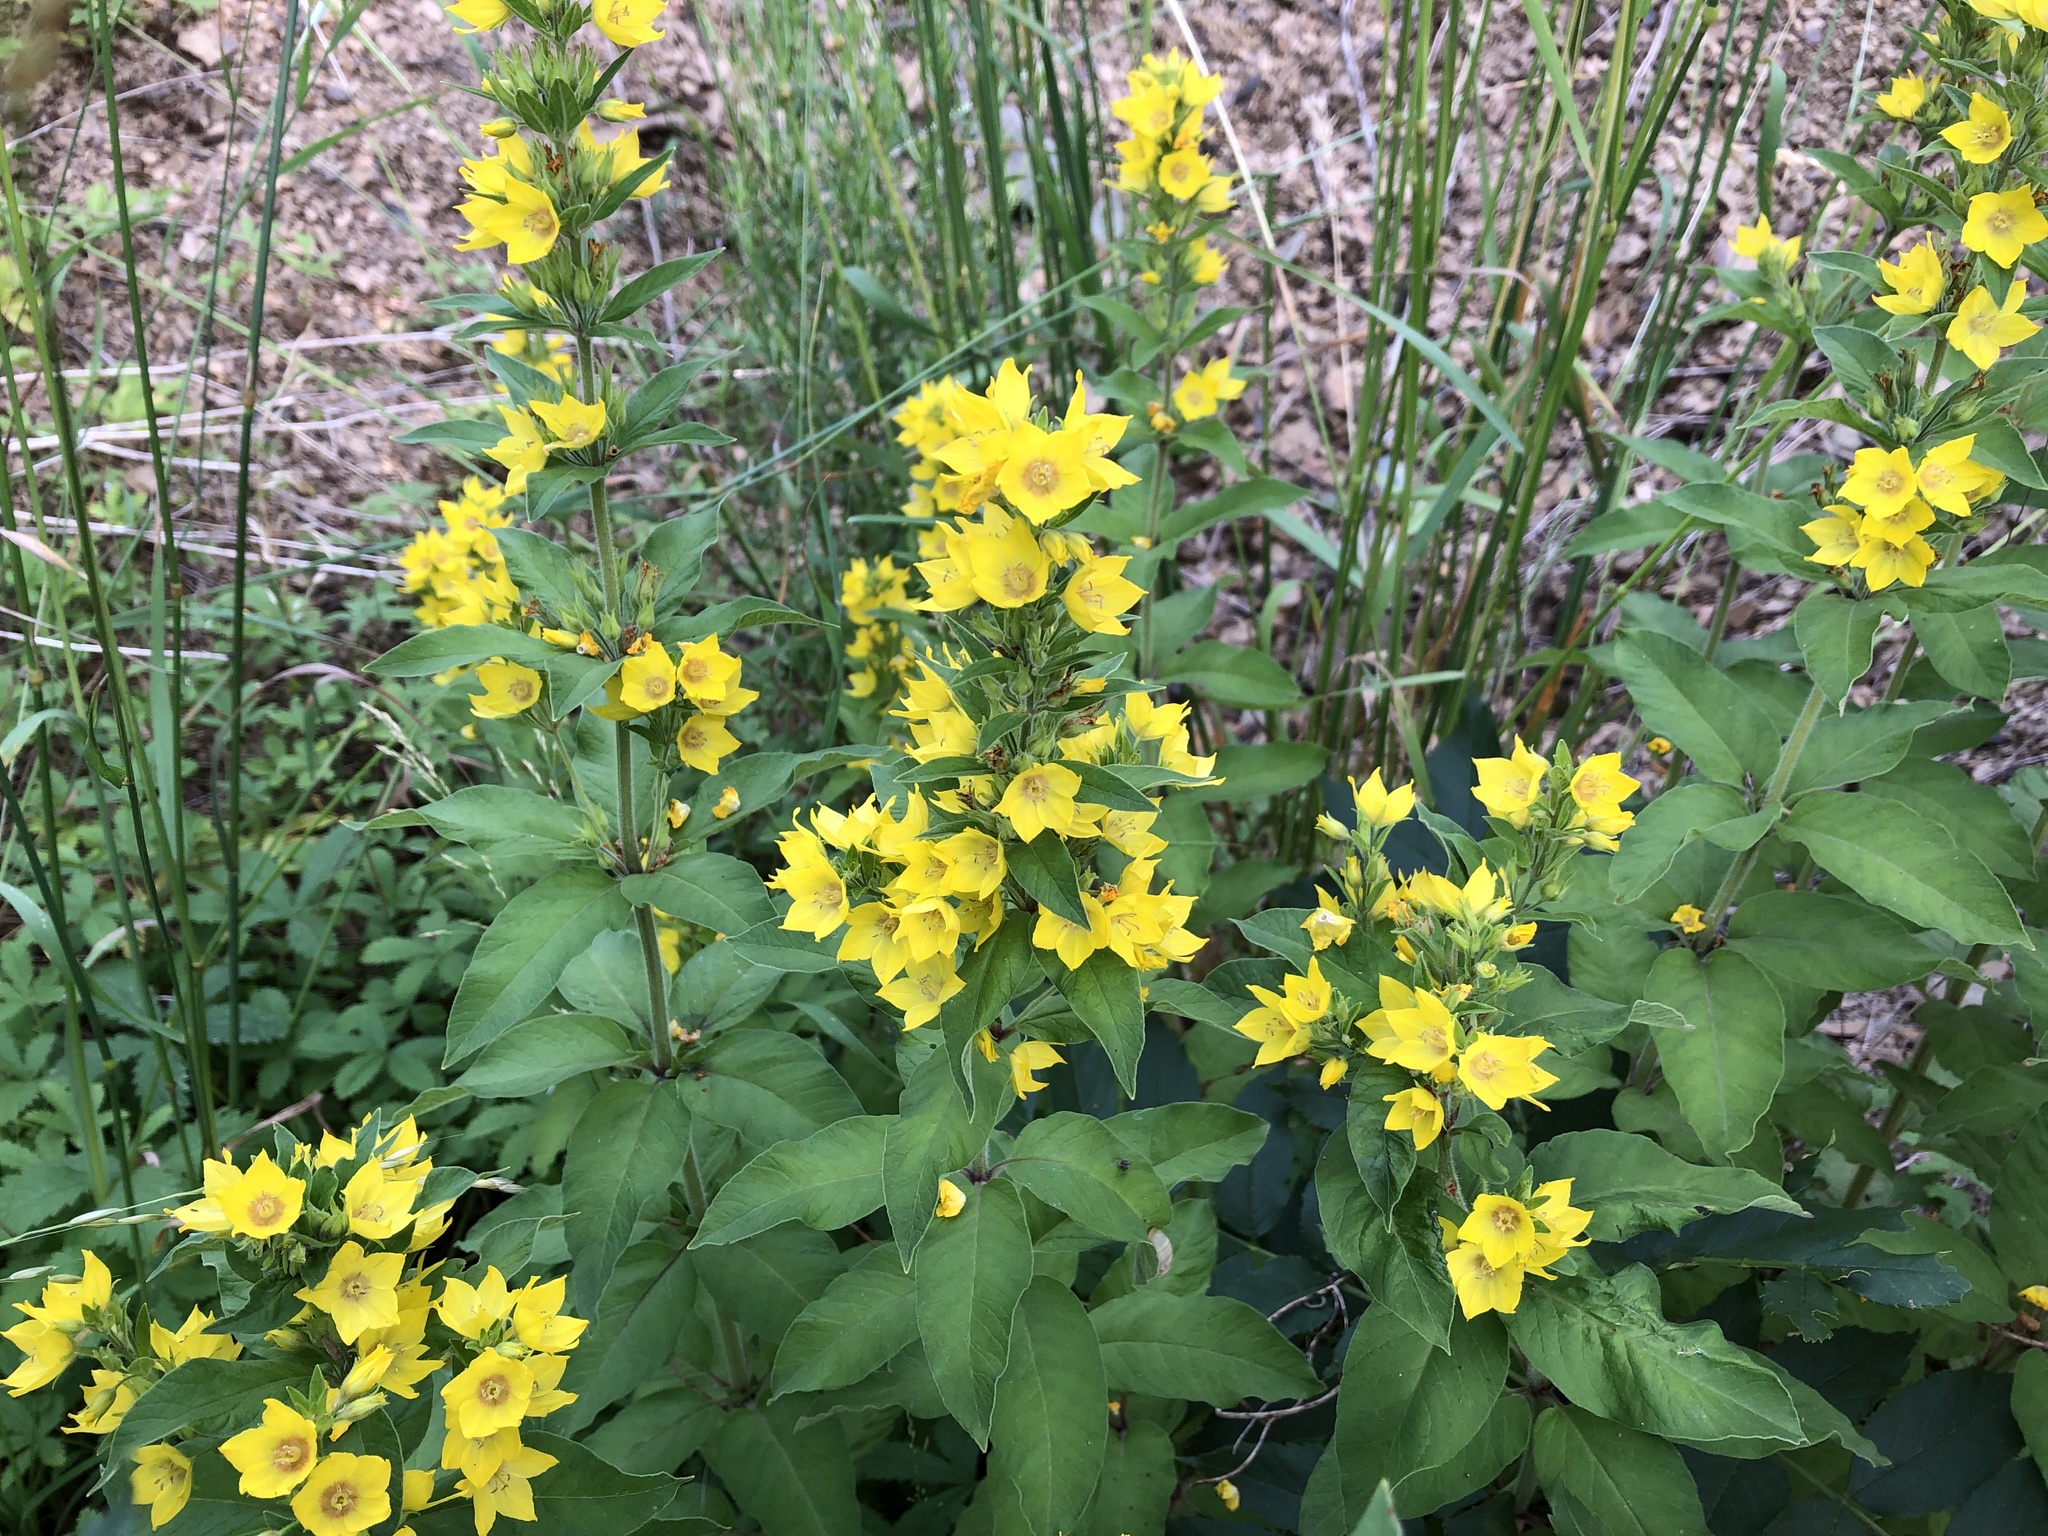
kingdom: Plantae
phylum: Tracheophyta
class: Magnoliopsida
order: Ericales
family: Primulaceae
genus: Lysimachia
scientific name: Lysimachia punctata
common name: Dotted loosestrife
